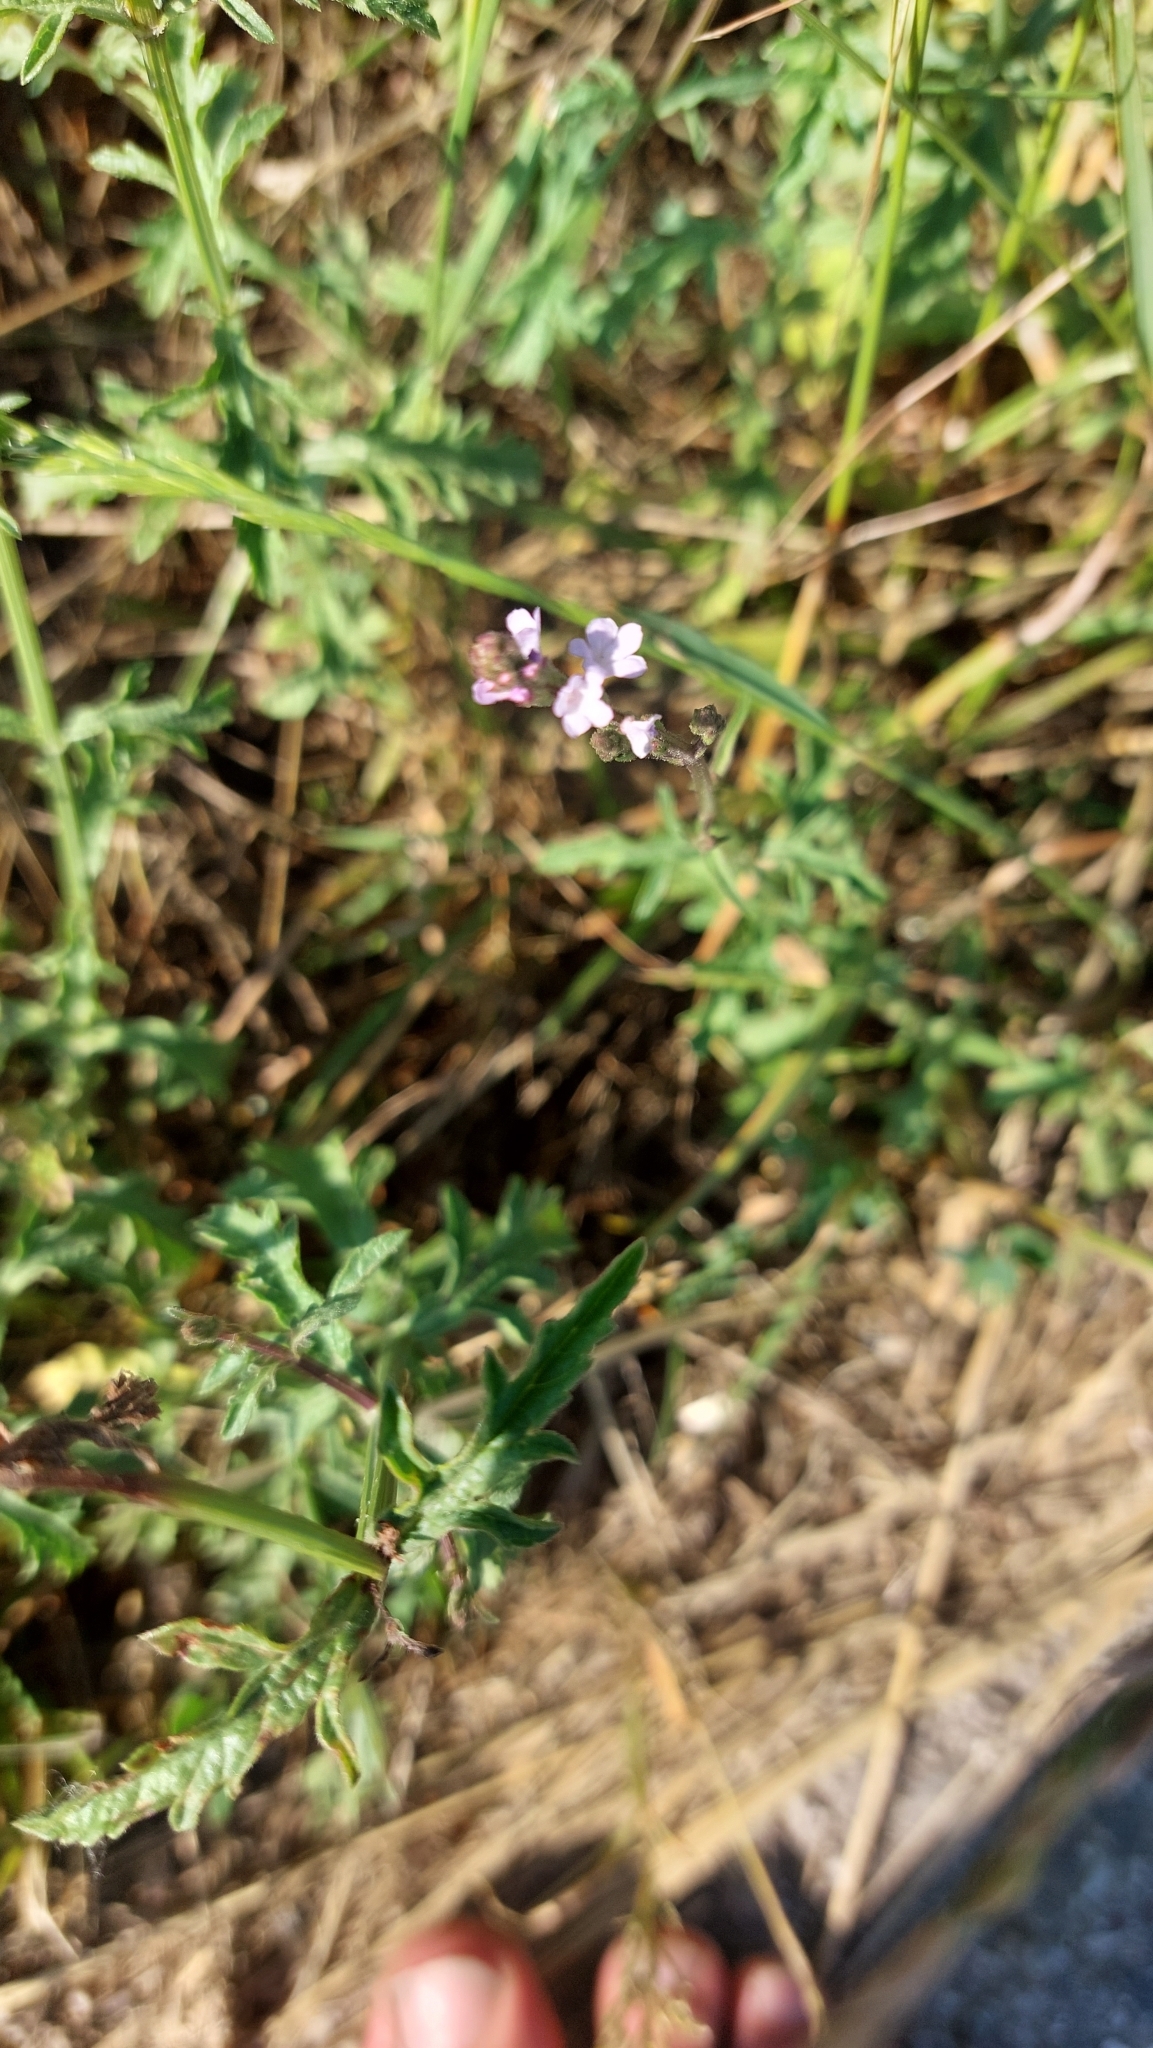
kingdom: Plantae
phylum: Tracheophyta
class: Magnoliopsida
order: Lamiales
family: Verbenaceae
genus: Verbena
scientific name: Verbena officinalis
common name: Vervain
